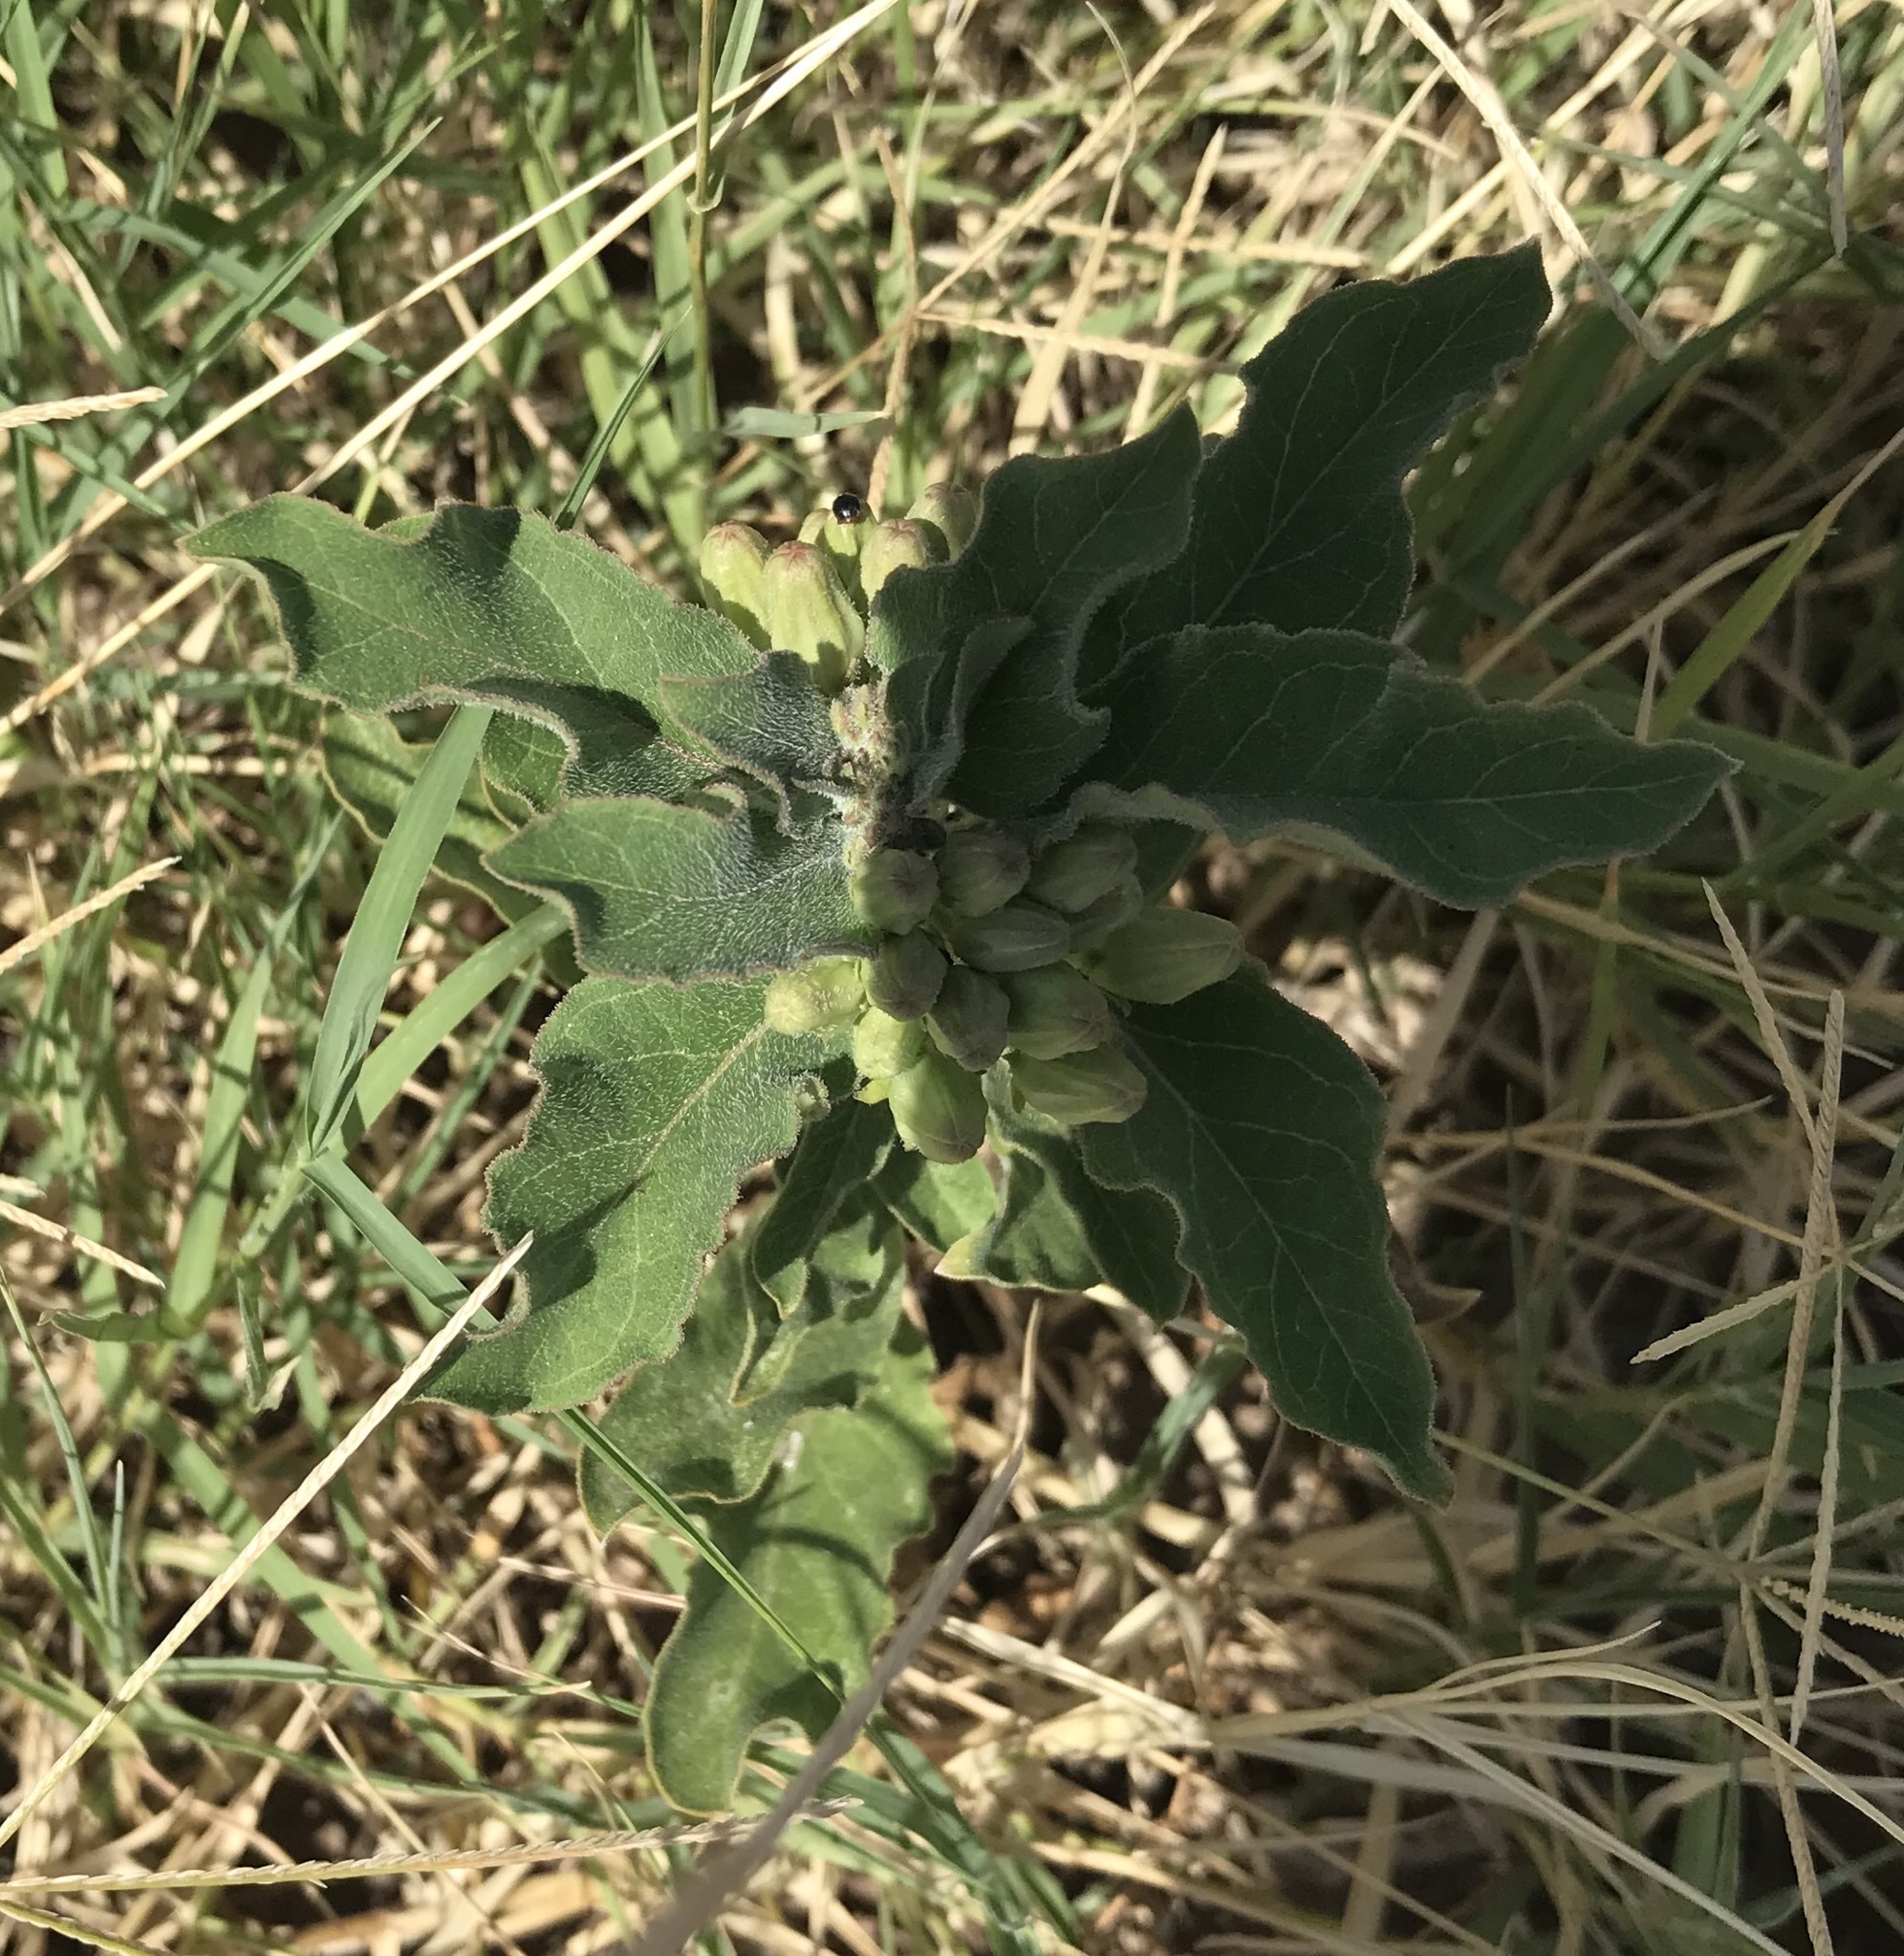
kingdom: Plantae
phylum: Tracheophyta
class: Magnoliopsida
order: Gentianales
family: Apocynaceae
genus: Asclepias
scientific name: Asclepias oenotheroides
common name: Zizotes milkweed
